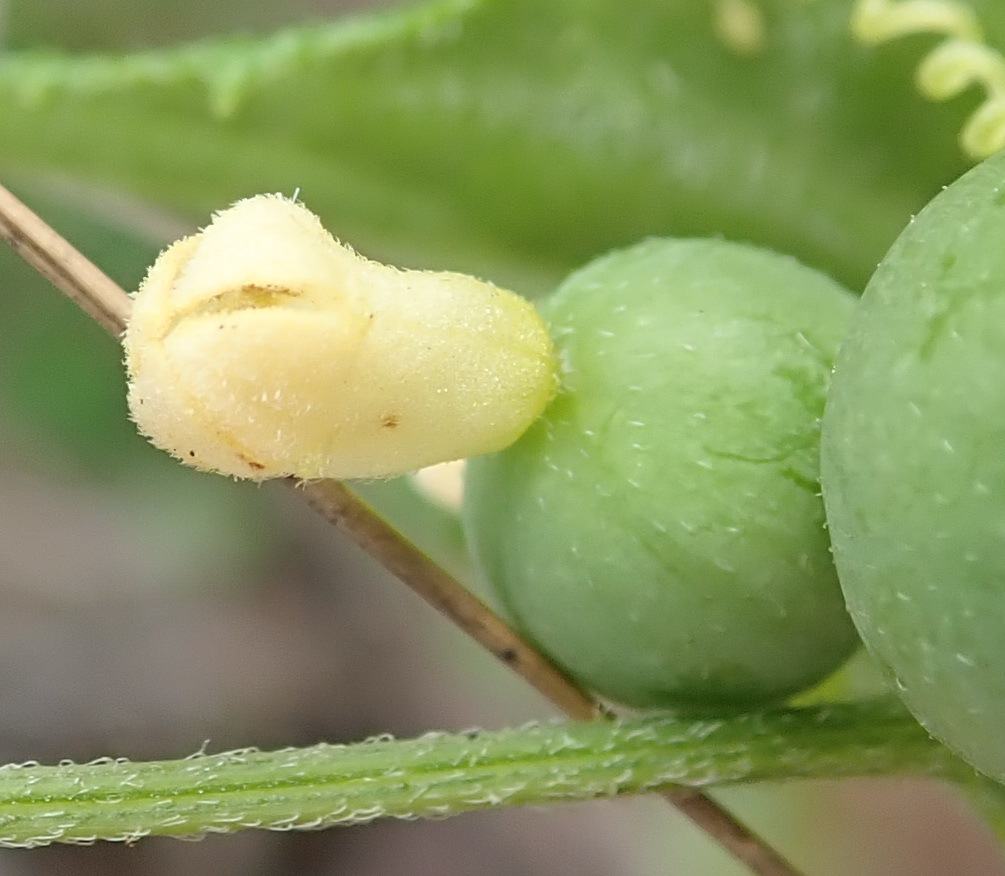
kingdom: Plantae
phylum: Tracheophyta
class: Magnoliopsida
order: Cucurbitales
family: Cucurbitaceae
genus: Zehneria
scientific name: Zehneria scabra
